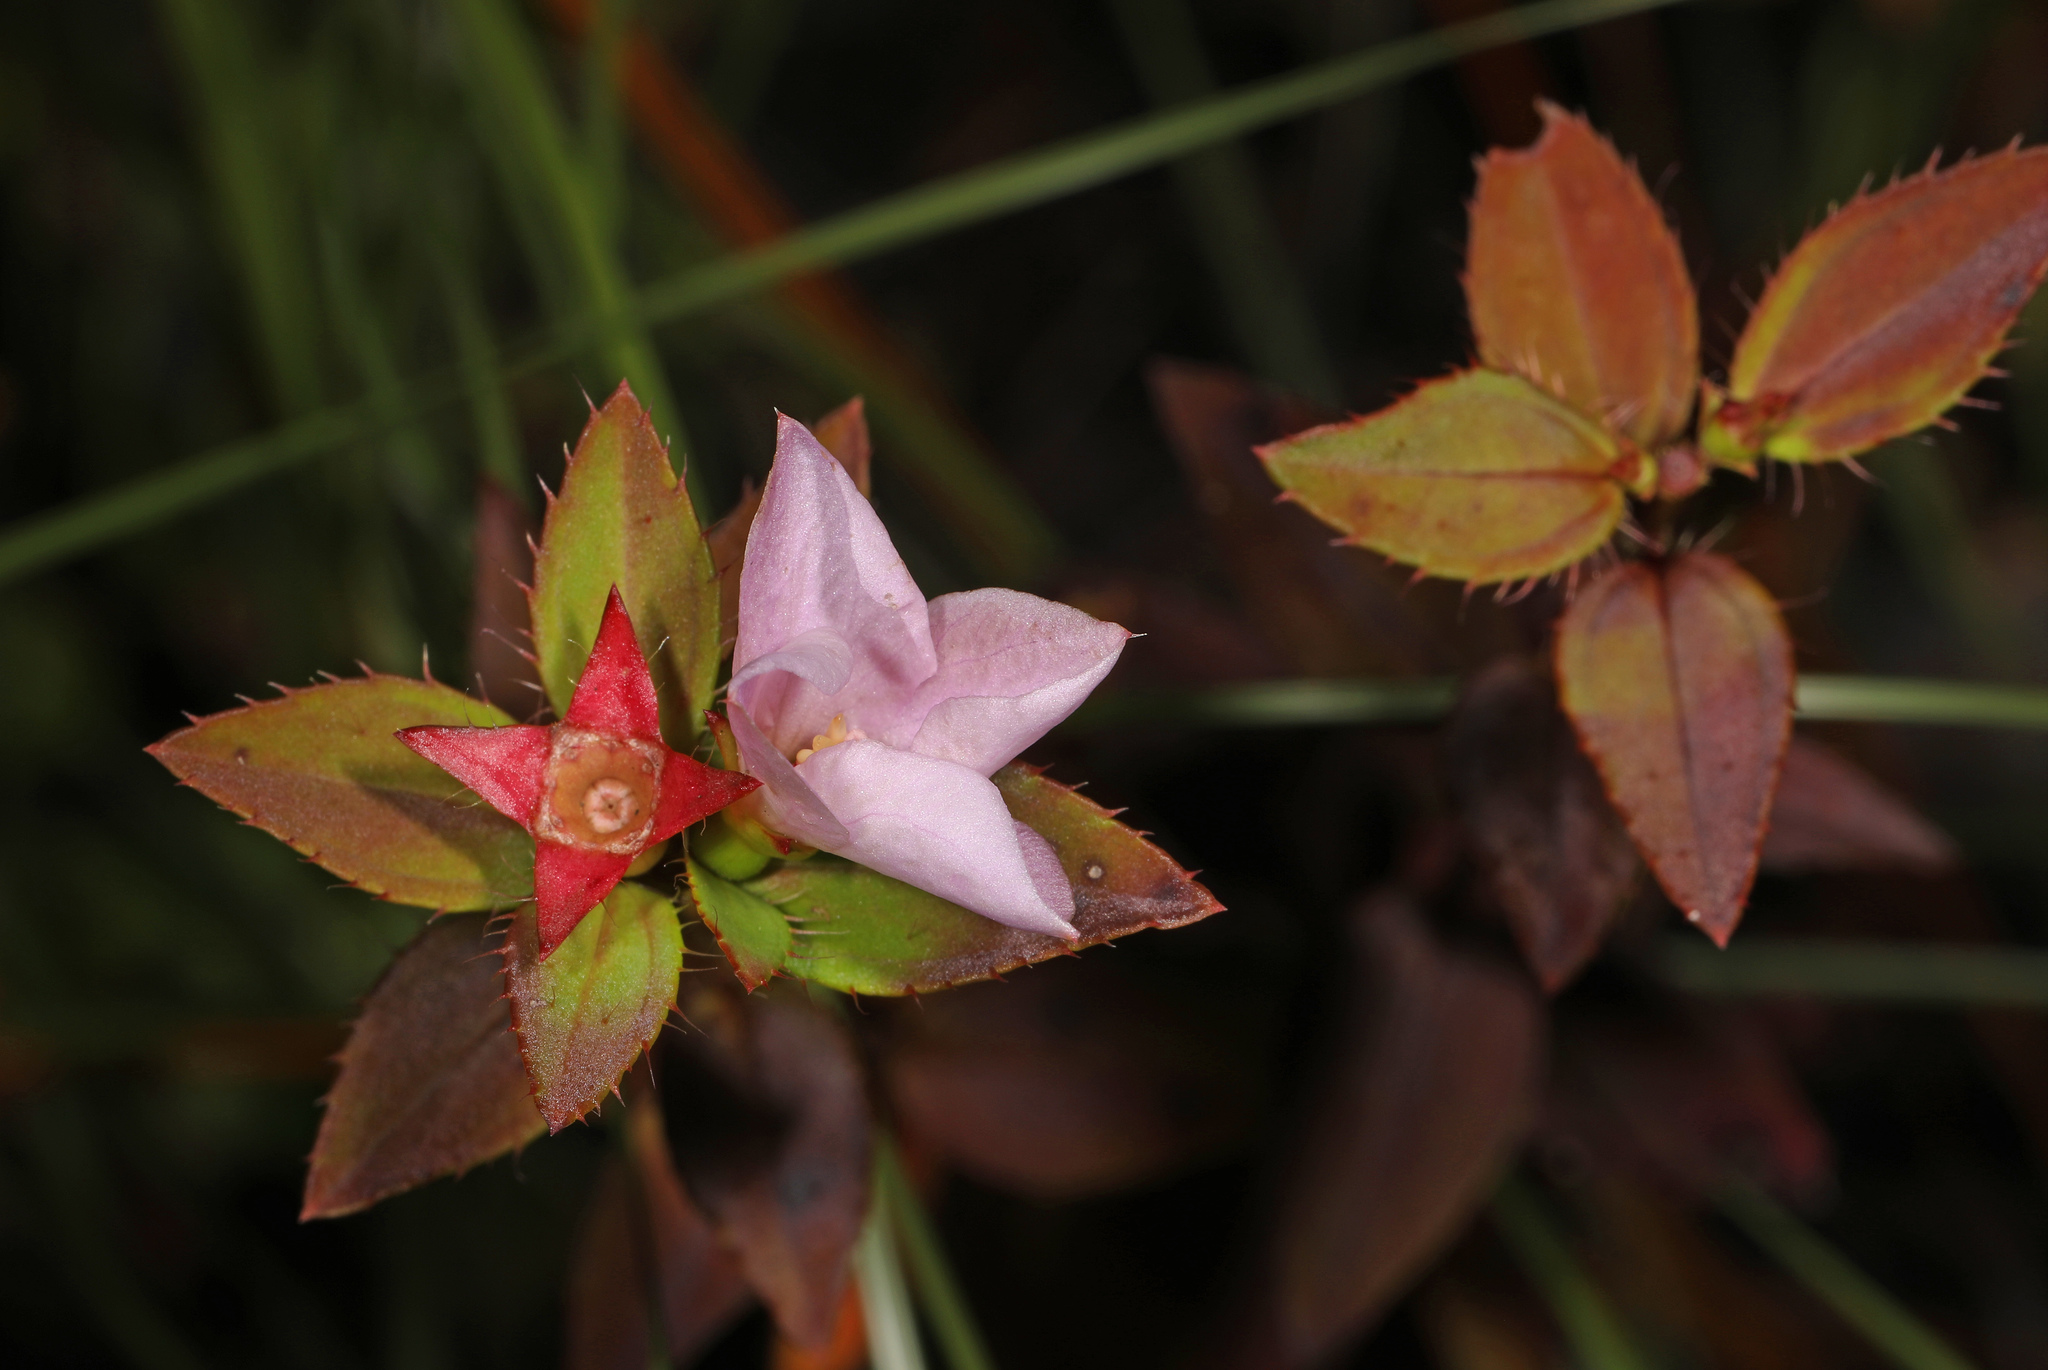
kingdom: Plantae
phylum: Tracheophyta
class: Magnoliopsida
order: Myrtales
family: Melastomataceae
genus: Rhexia
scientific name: Rhexia petiolata
